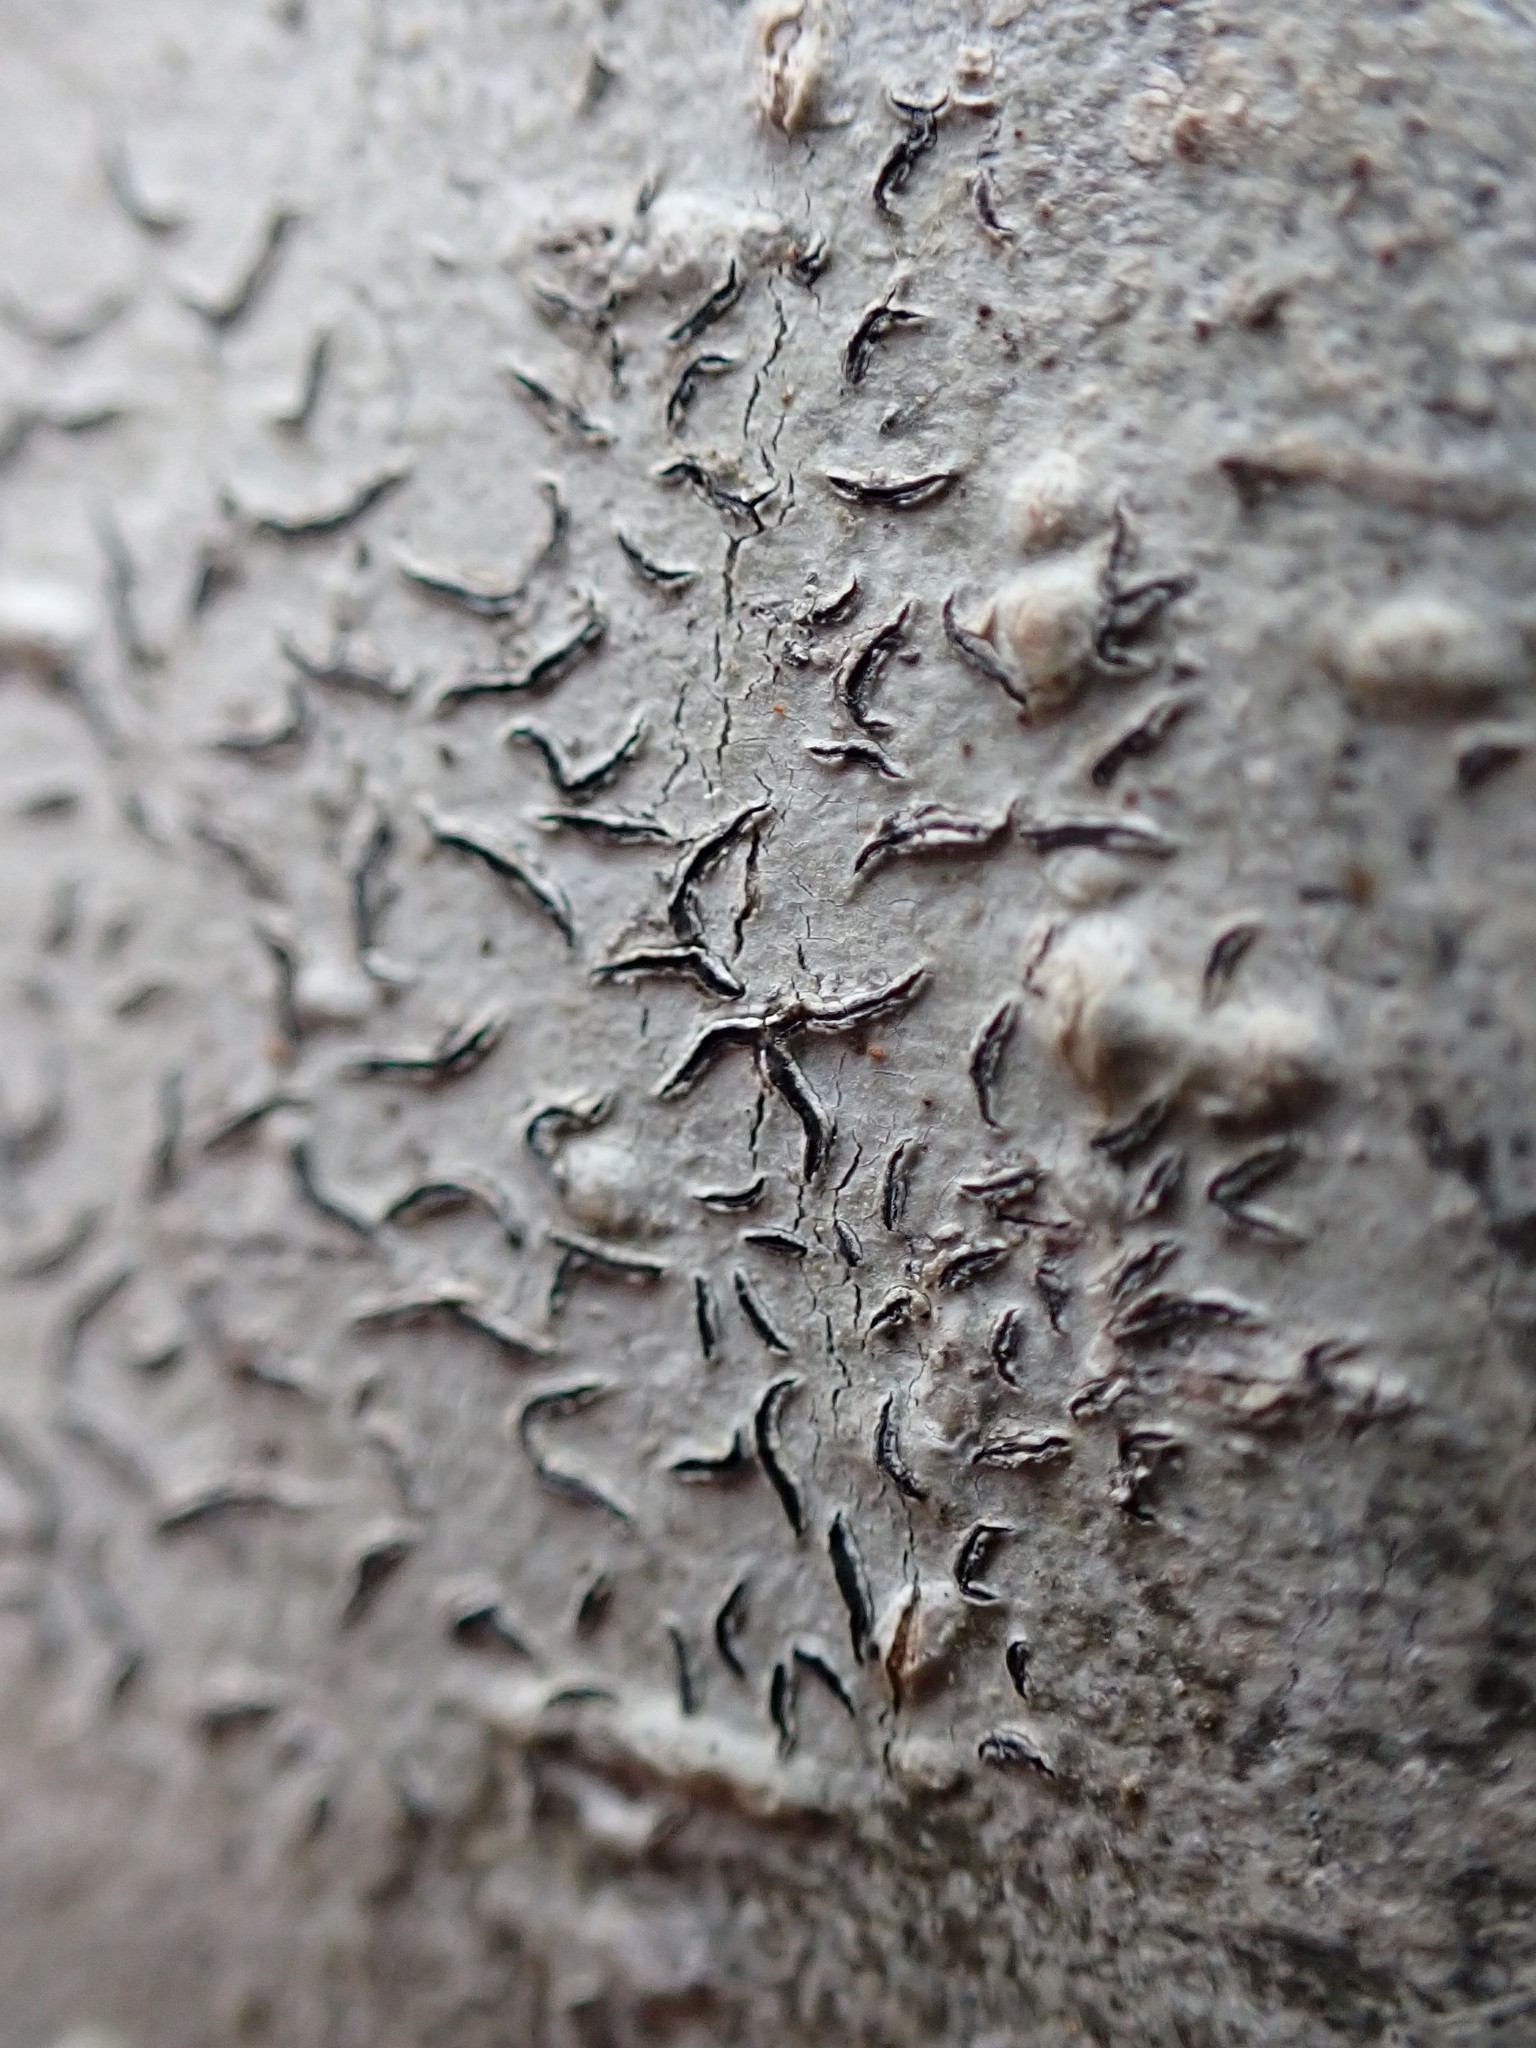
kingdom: Fungi
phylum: Ascomycota
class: Lecanoromycetes
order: Ostropales
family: Graphidaceae
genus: Graphis
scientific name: Graphis scripta
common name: Script lichen
